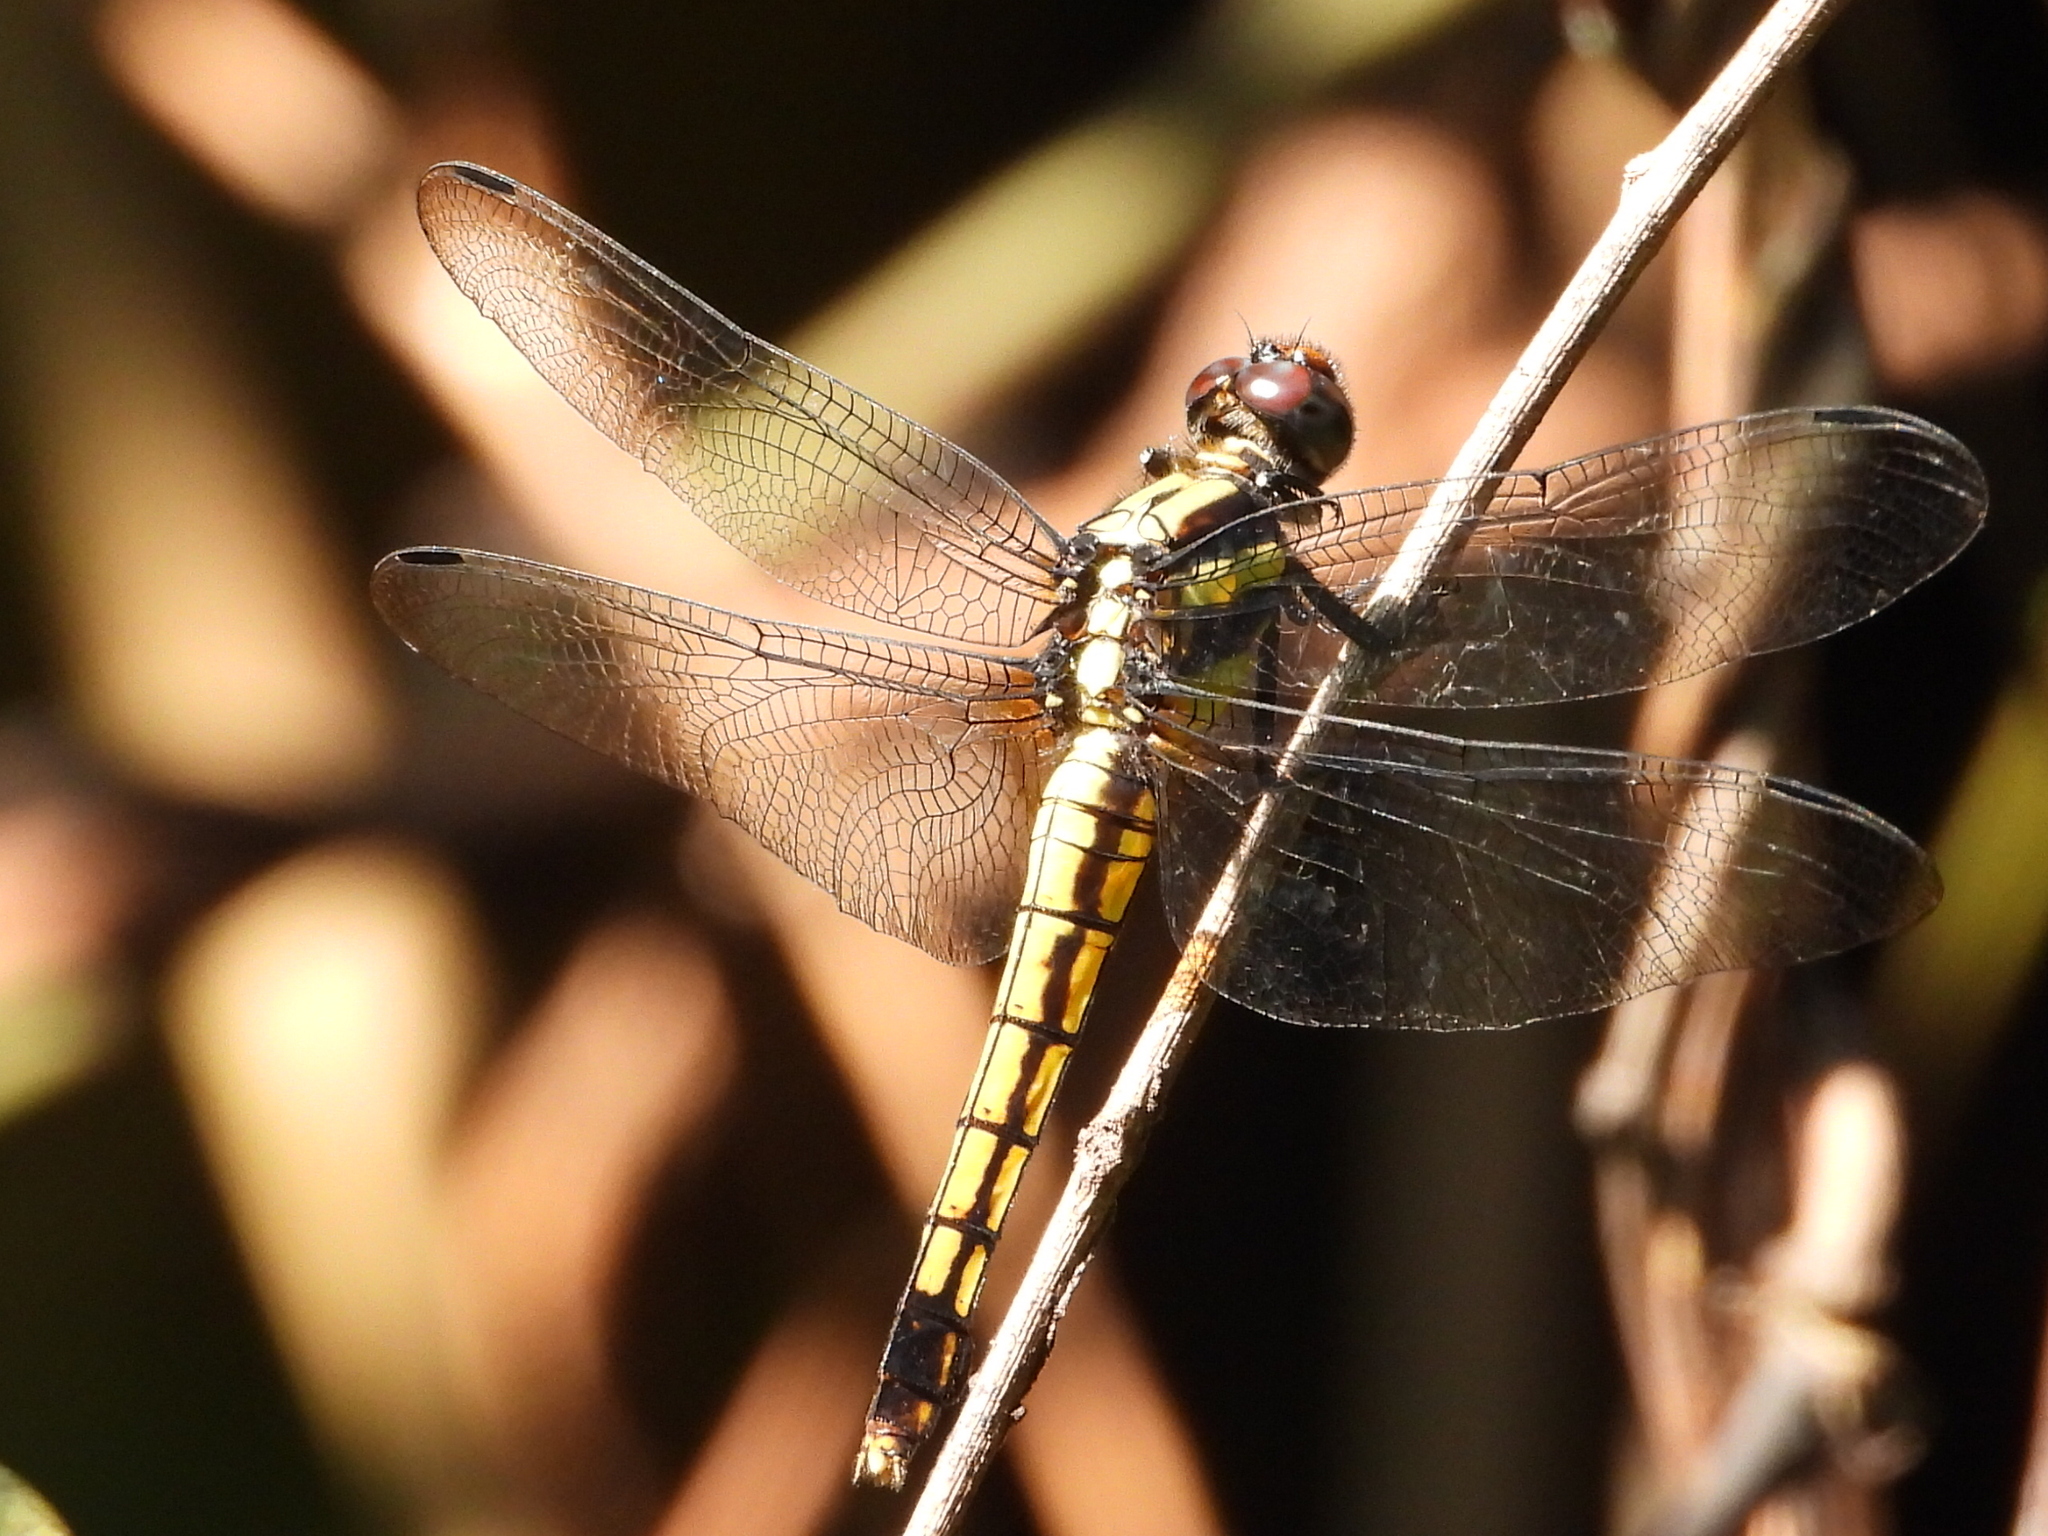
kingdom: Animalia
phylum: Arthropoda
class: Insecta
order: Odonata
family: Libellulidae
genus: Orthetrum
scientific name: Orthetrum triangulare
